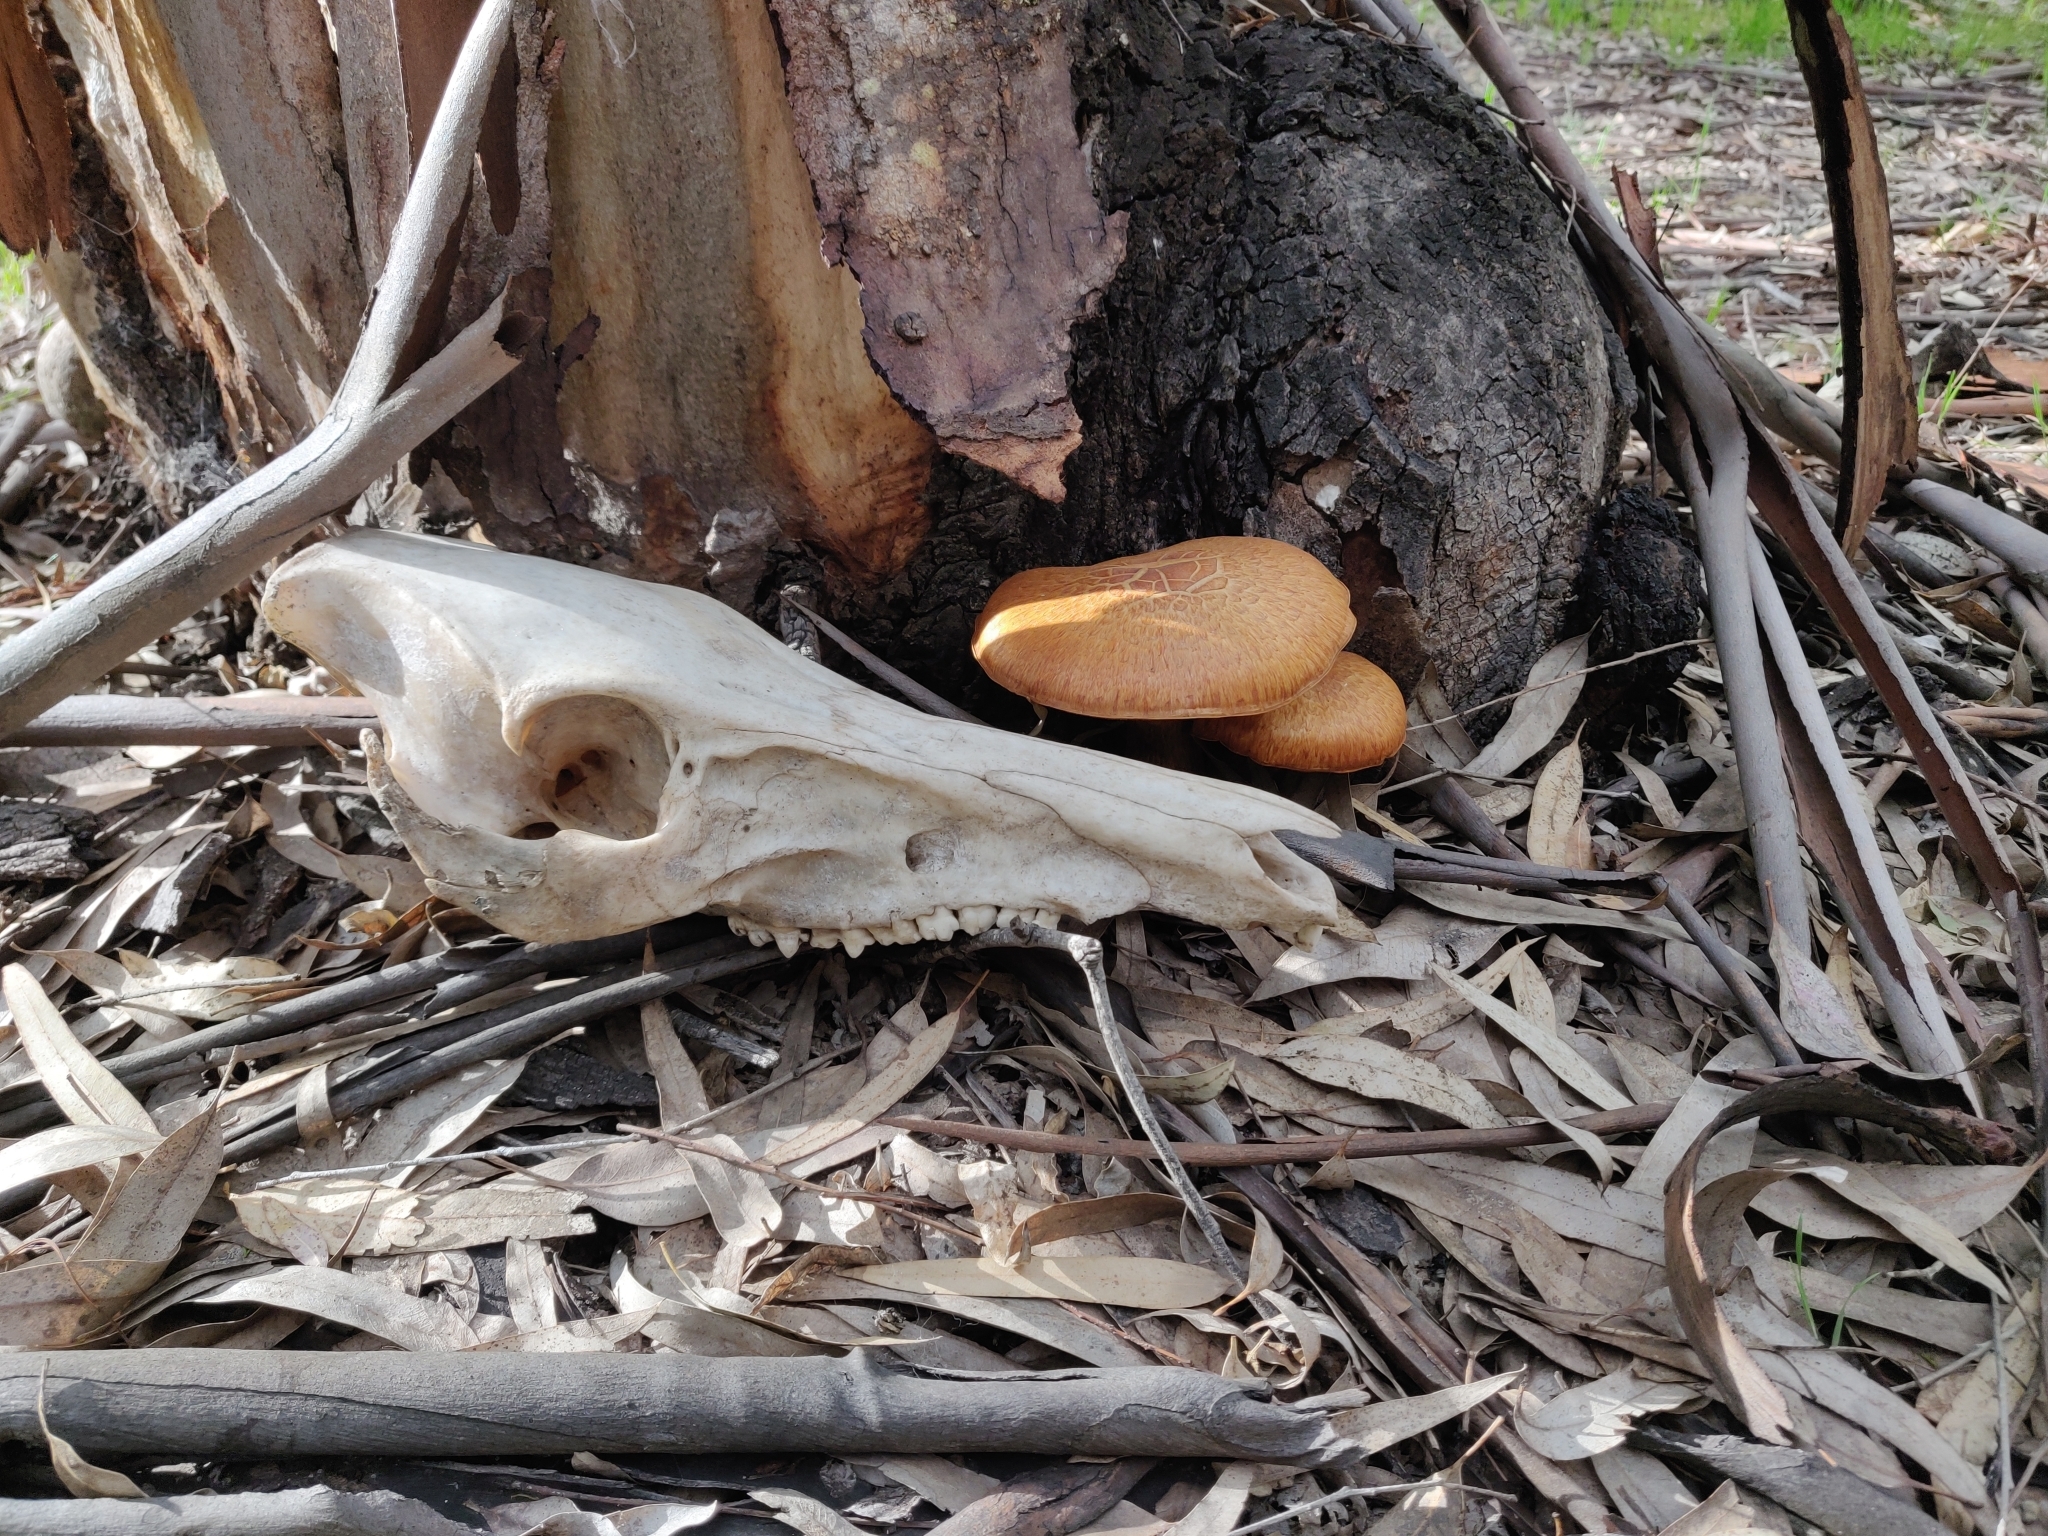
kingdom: Animalia
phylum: Chordata
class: Mammalia
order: Artiodactyla
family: Suidae
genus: Sus
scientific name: Sus scrofa
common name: Wild boar
